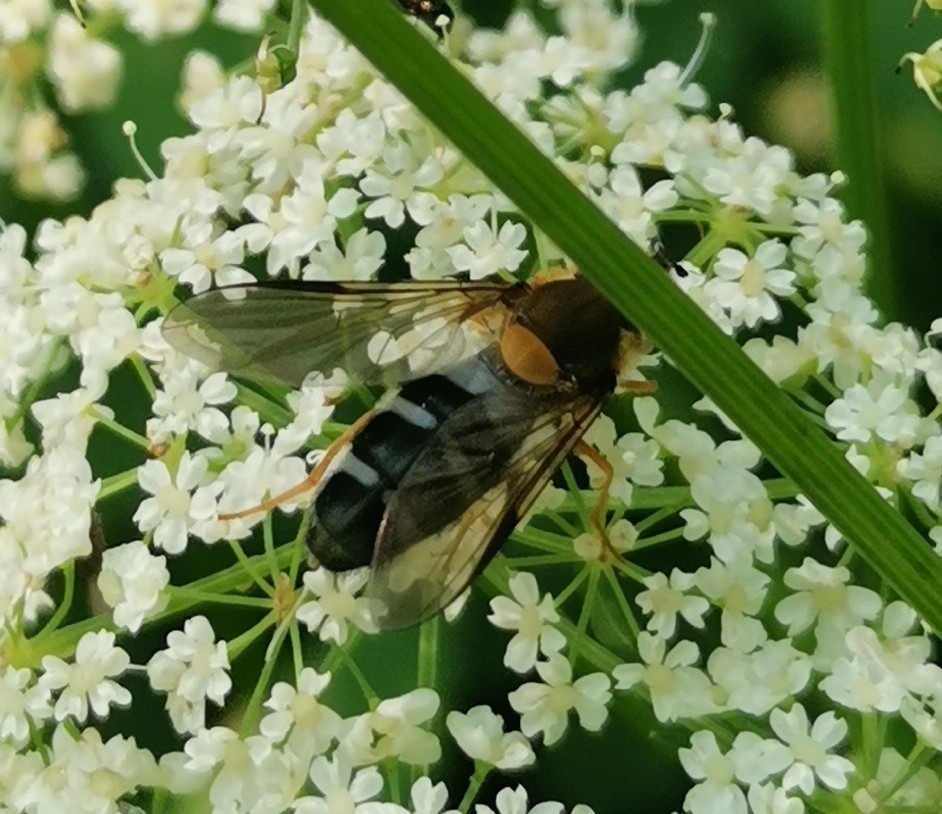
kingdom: Animalia
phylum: Arthropoda
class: Insecta
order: Diptera
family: Syrphidae
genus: Leucozona
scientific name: Leucozona glaucia
